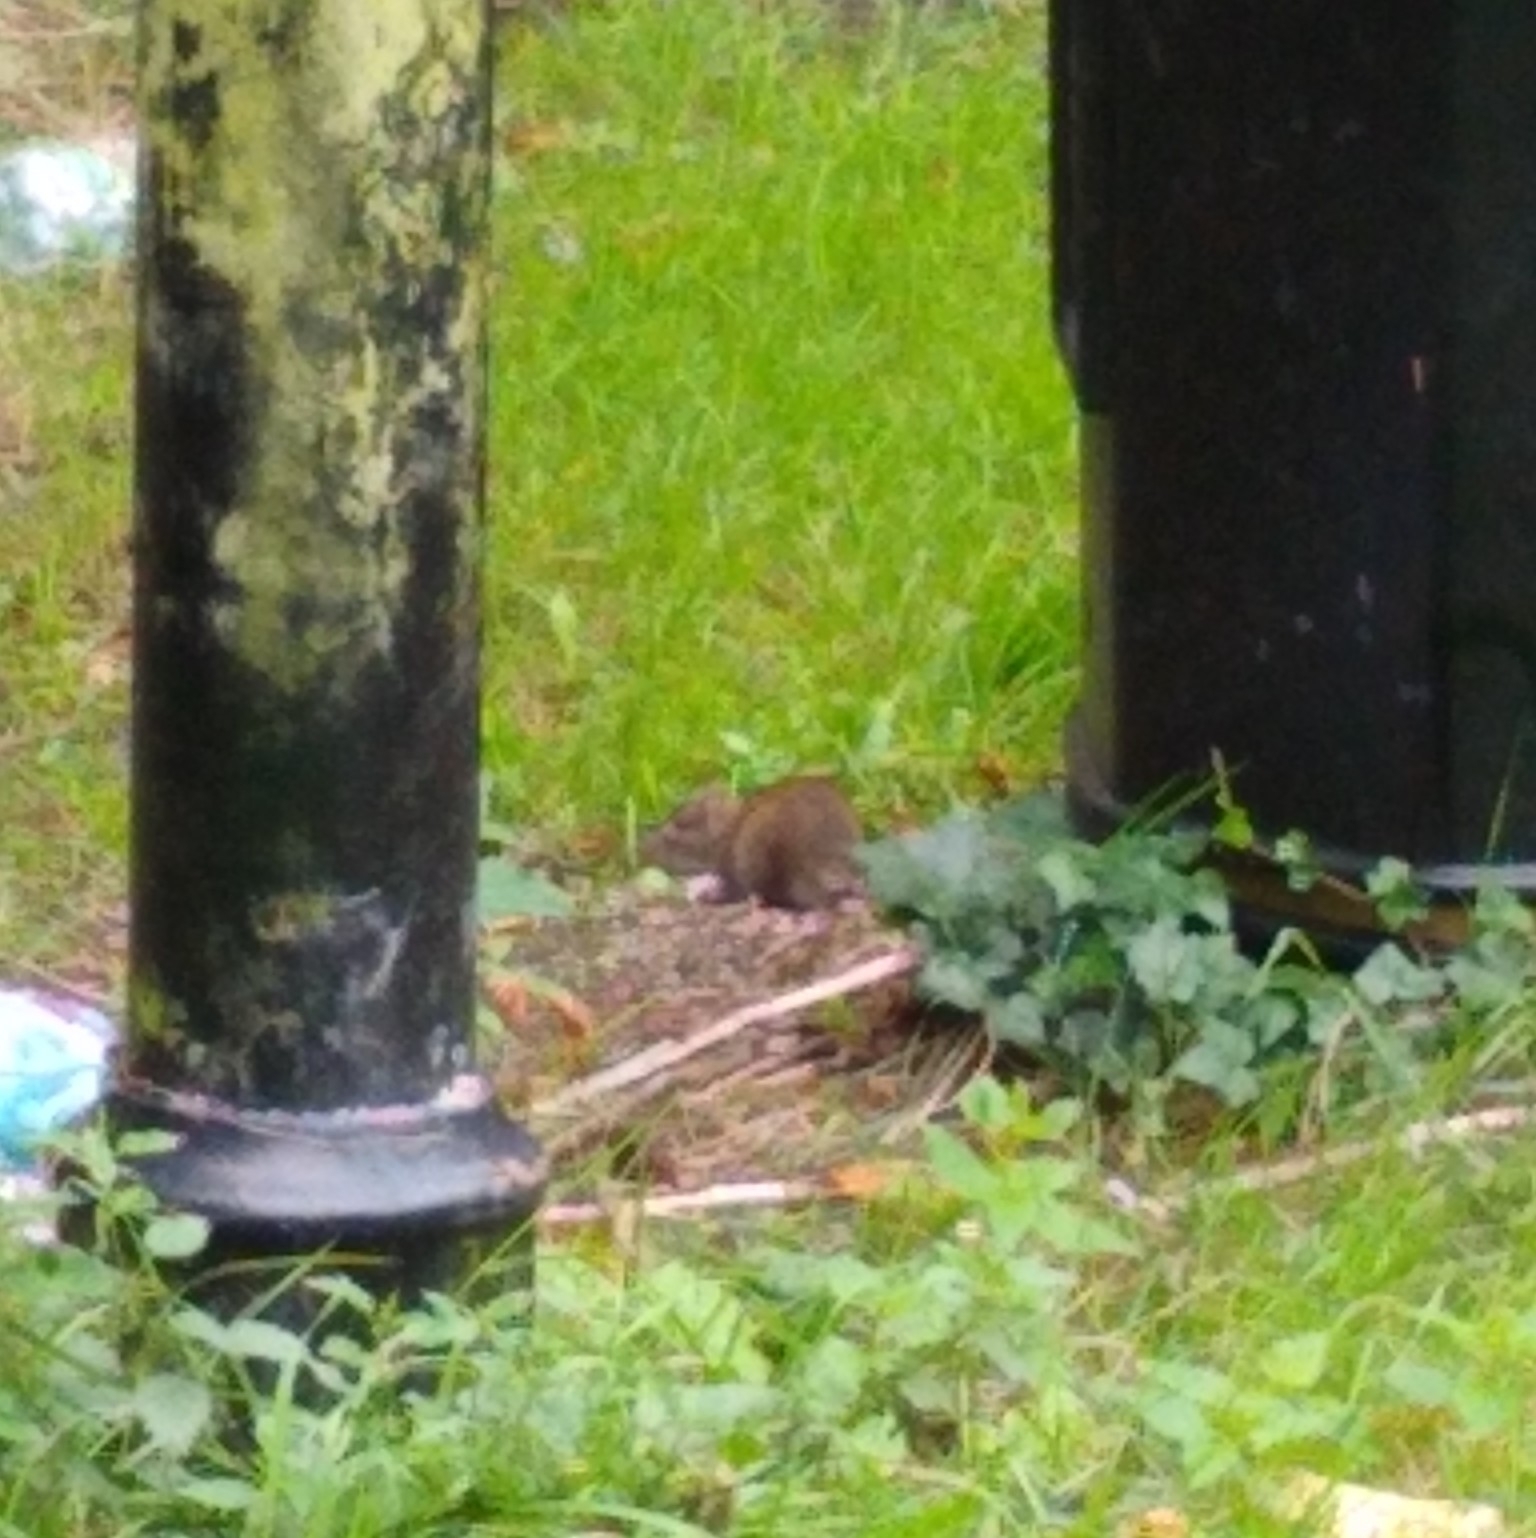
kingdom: Animalia
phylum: Chordata
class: Mammalia
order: Rodentia
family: Muridae
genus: Rattus
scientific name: Rattus norvegicus
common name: Brown rat
